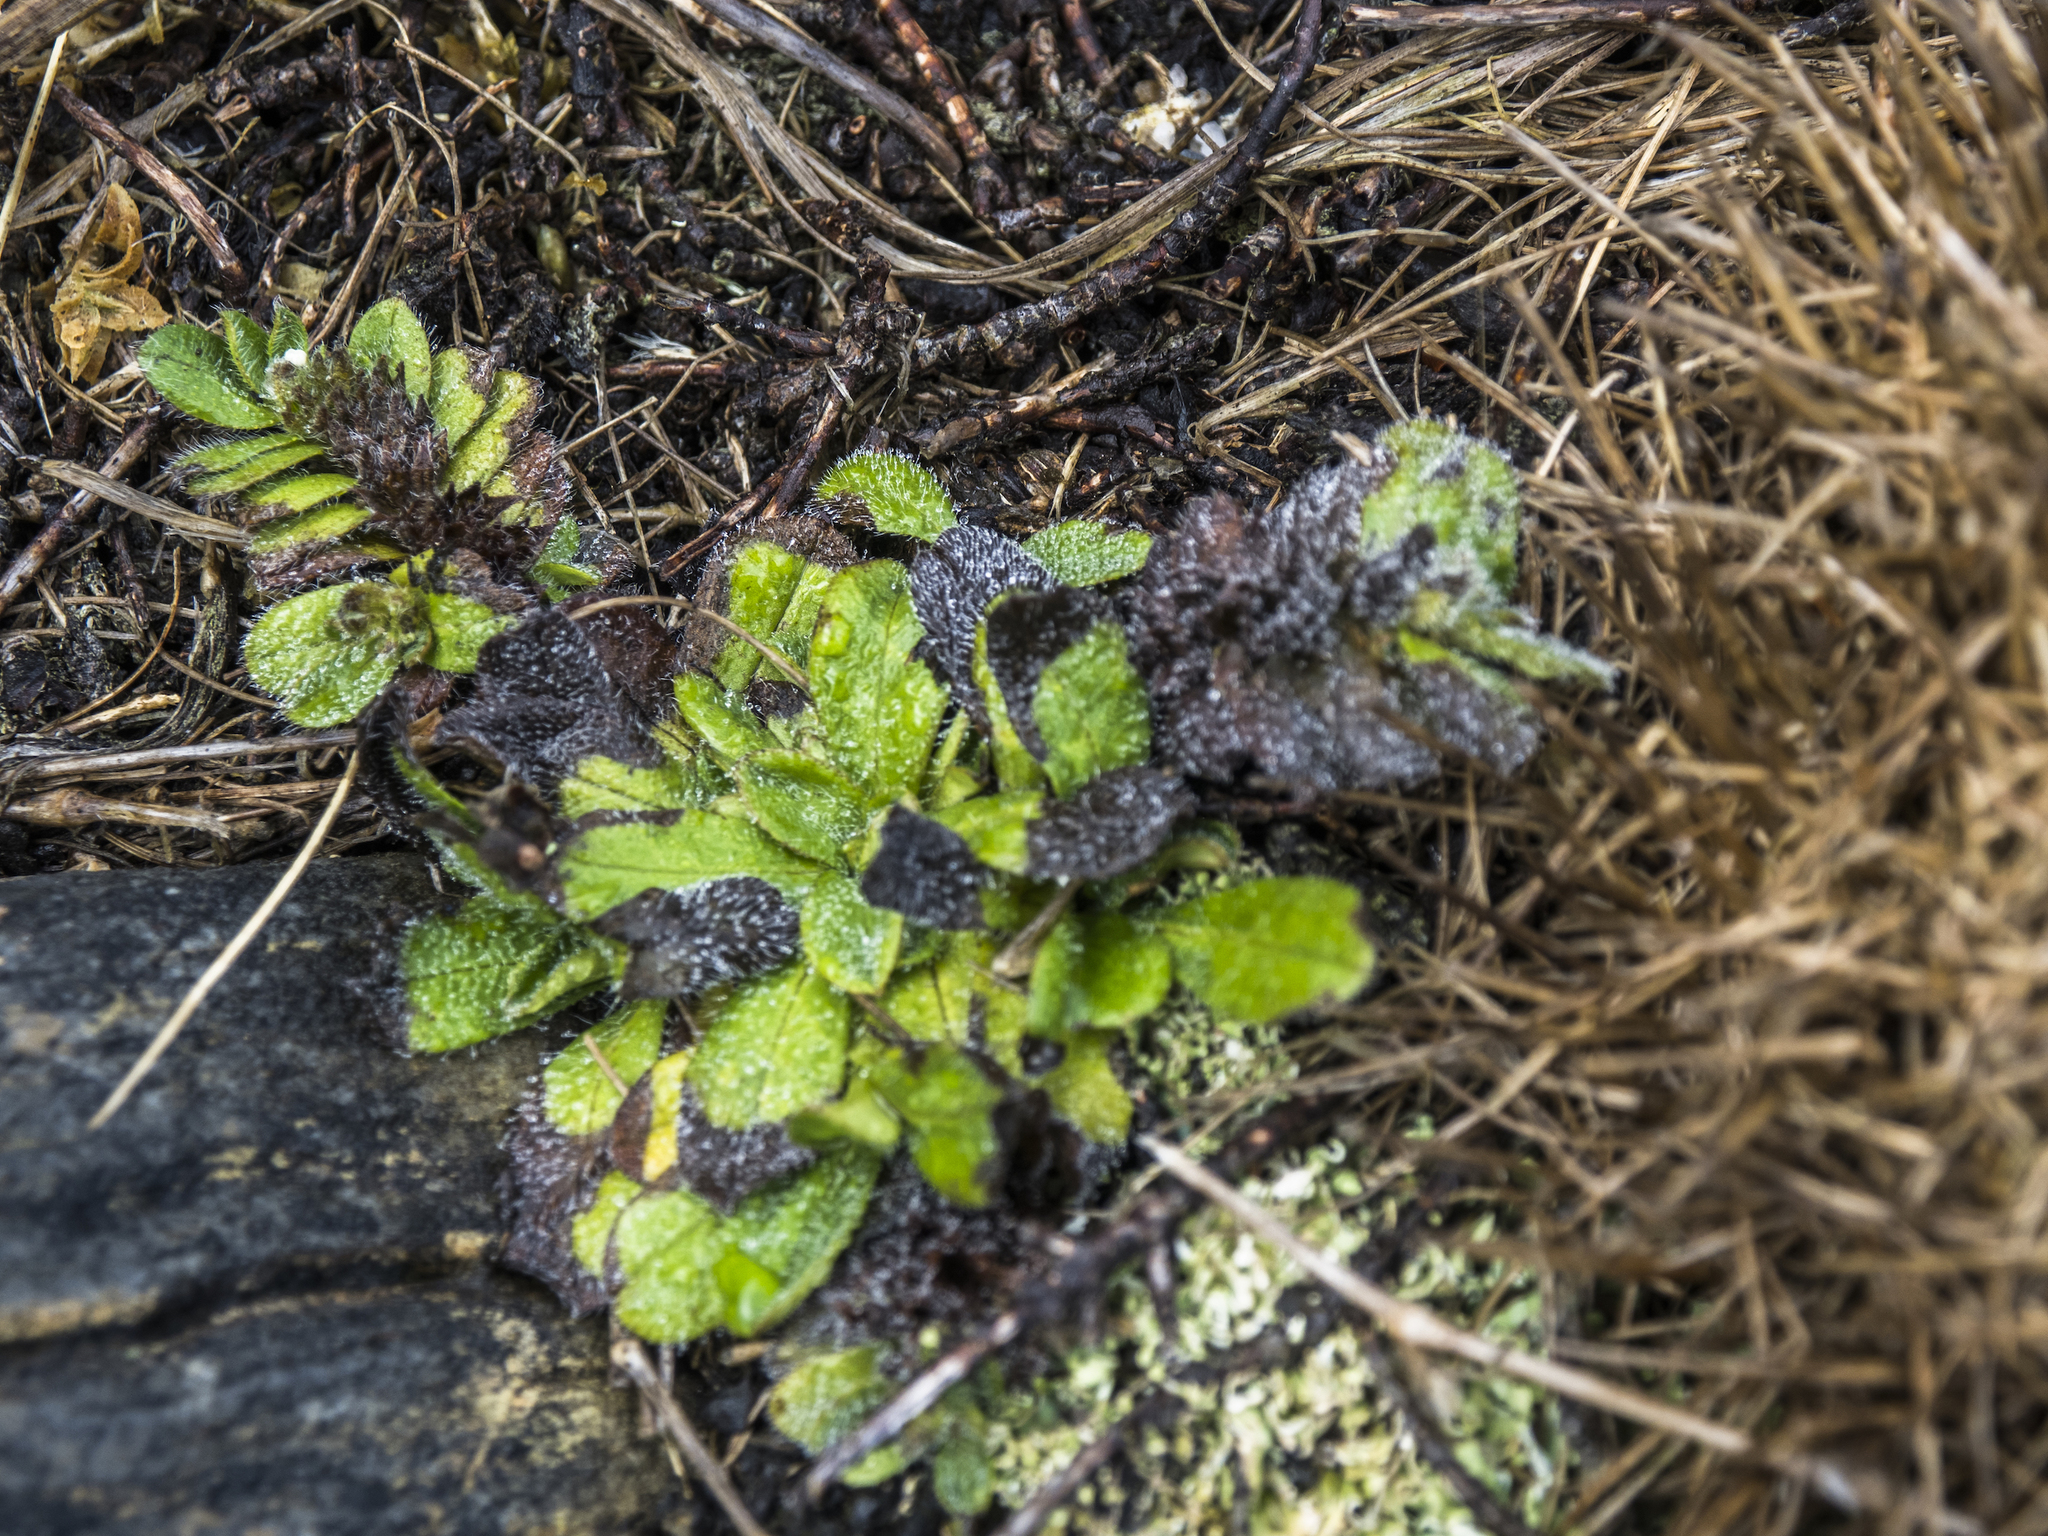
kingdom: Plantae
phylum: Tracheophyta
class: Magnoliopsida
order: Boraginales
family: Boraginaceae
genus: Myosotis
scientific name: Myosotis antarctica
